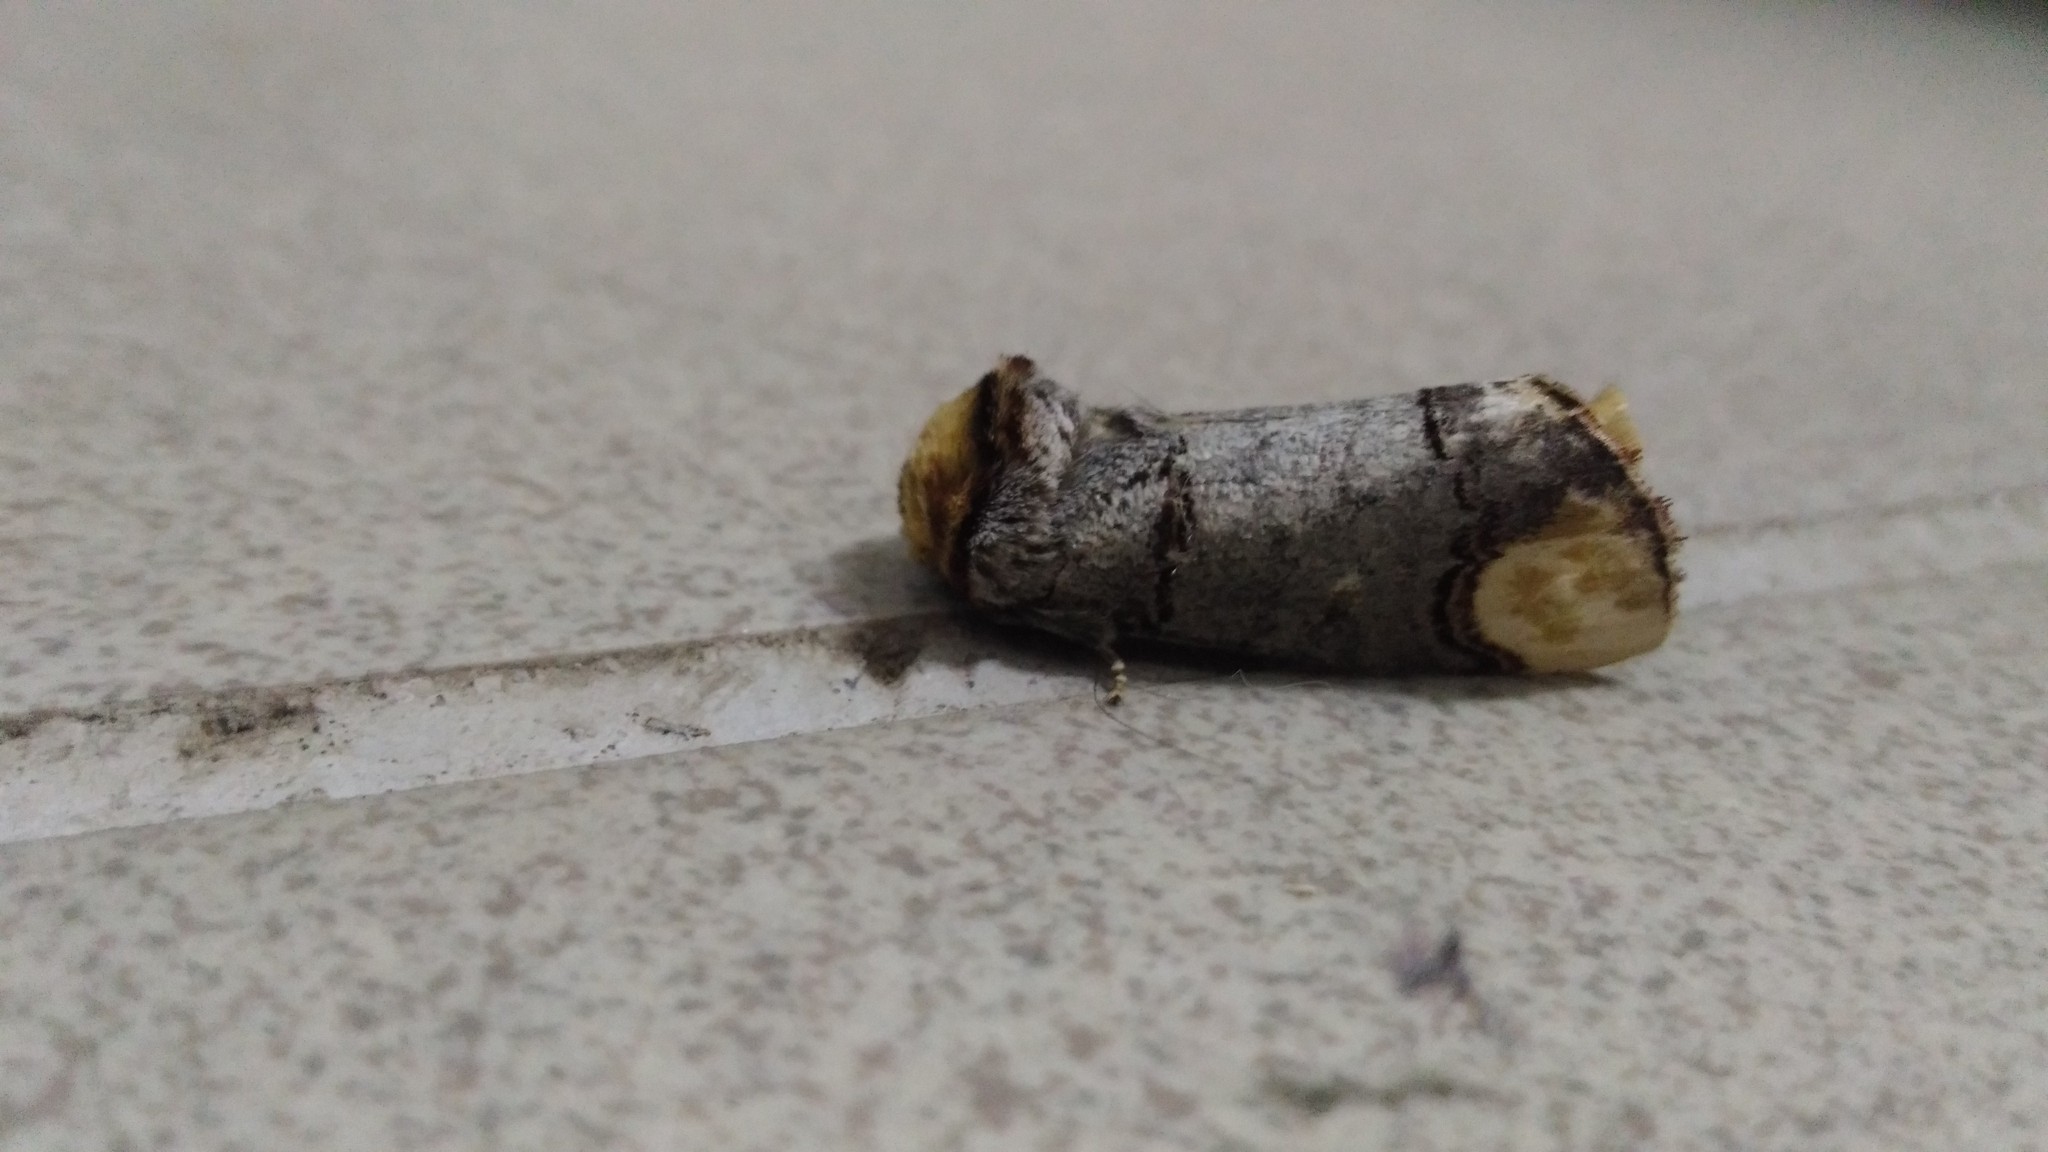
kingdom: Animalia
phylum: Arthropoda
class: Insecta
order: Lepidoptera
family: Notodontidae
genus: Phalera
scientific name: Phalera bucephala
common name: Buff-tip
